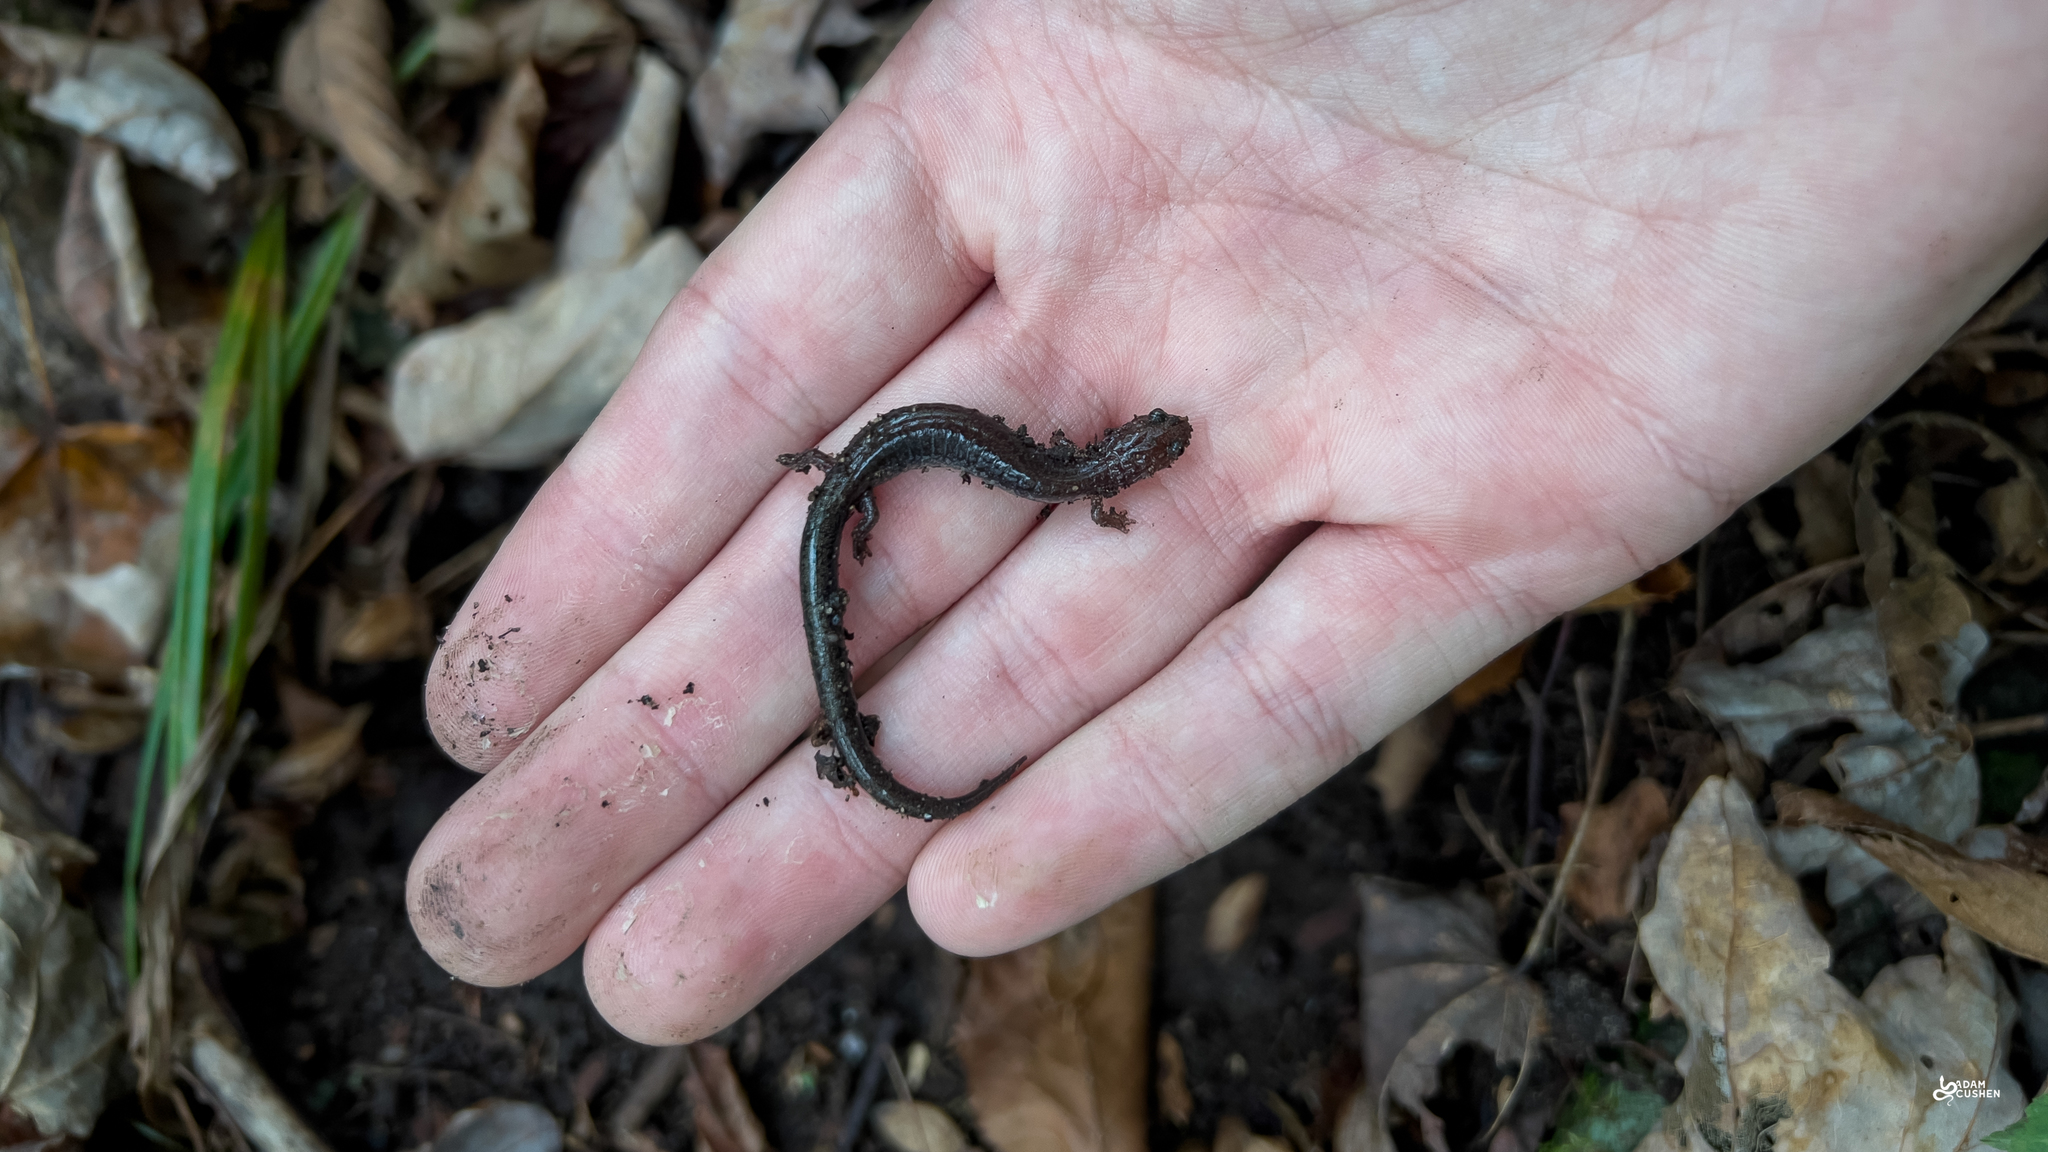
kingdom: Animalia
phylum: Chordata
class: Amphibia
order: Caudata
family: Plethodontidae
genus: Plethodon
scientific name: Plethodon cinereus
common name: Redback salamander
